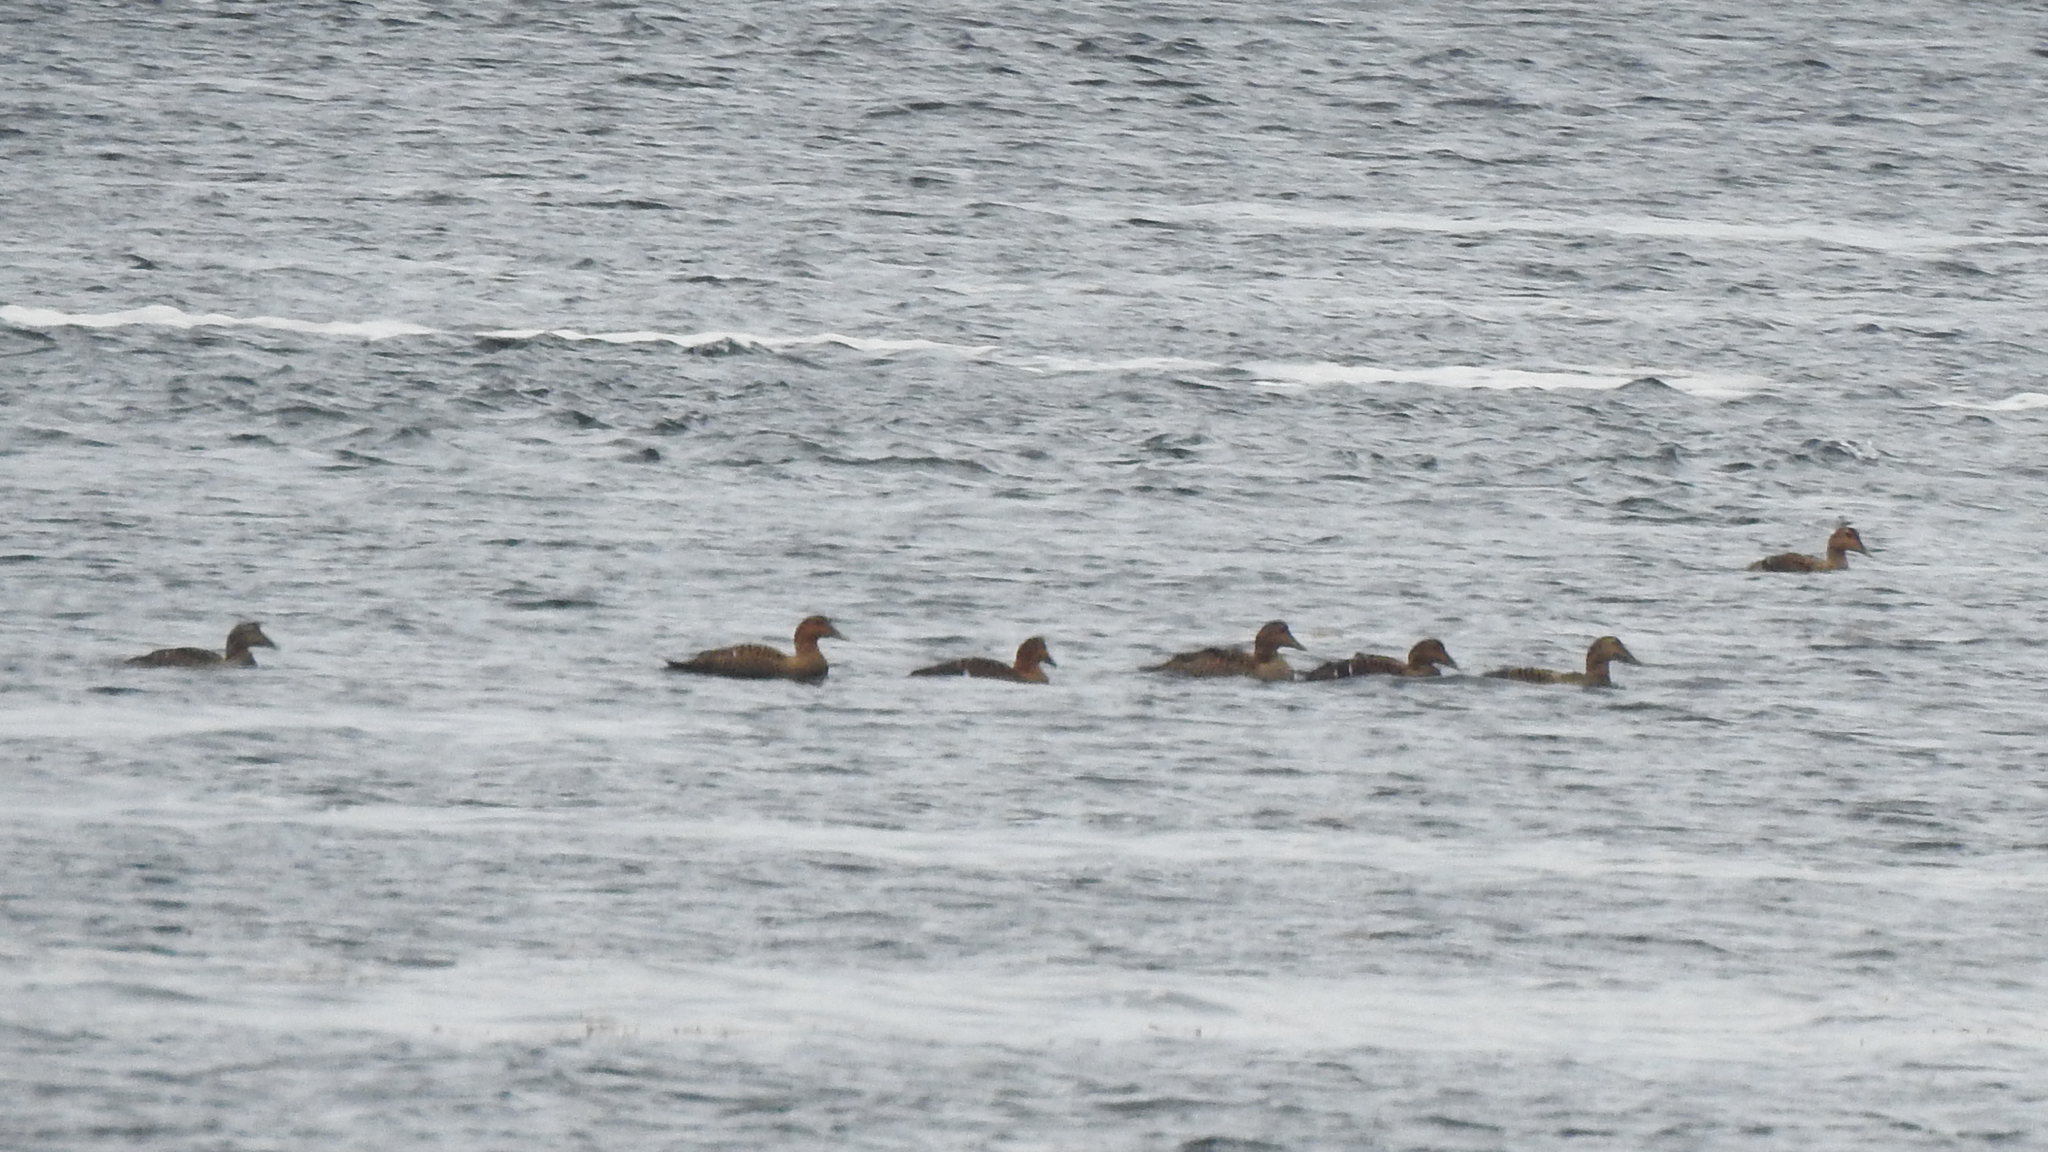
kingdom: Animalia
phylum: Chordata
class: Aves
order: Anseriformes
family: Anatidae
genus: Somateria
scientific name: Somateria mollissima
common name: Common eider
